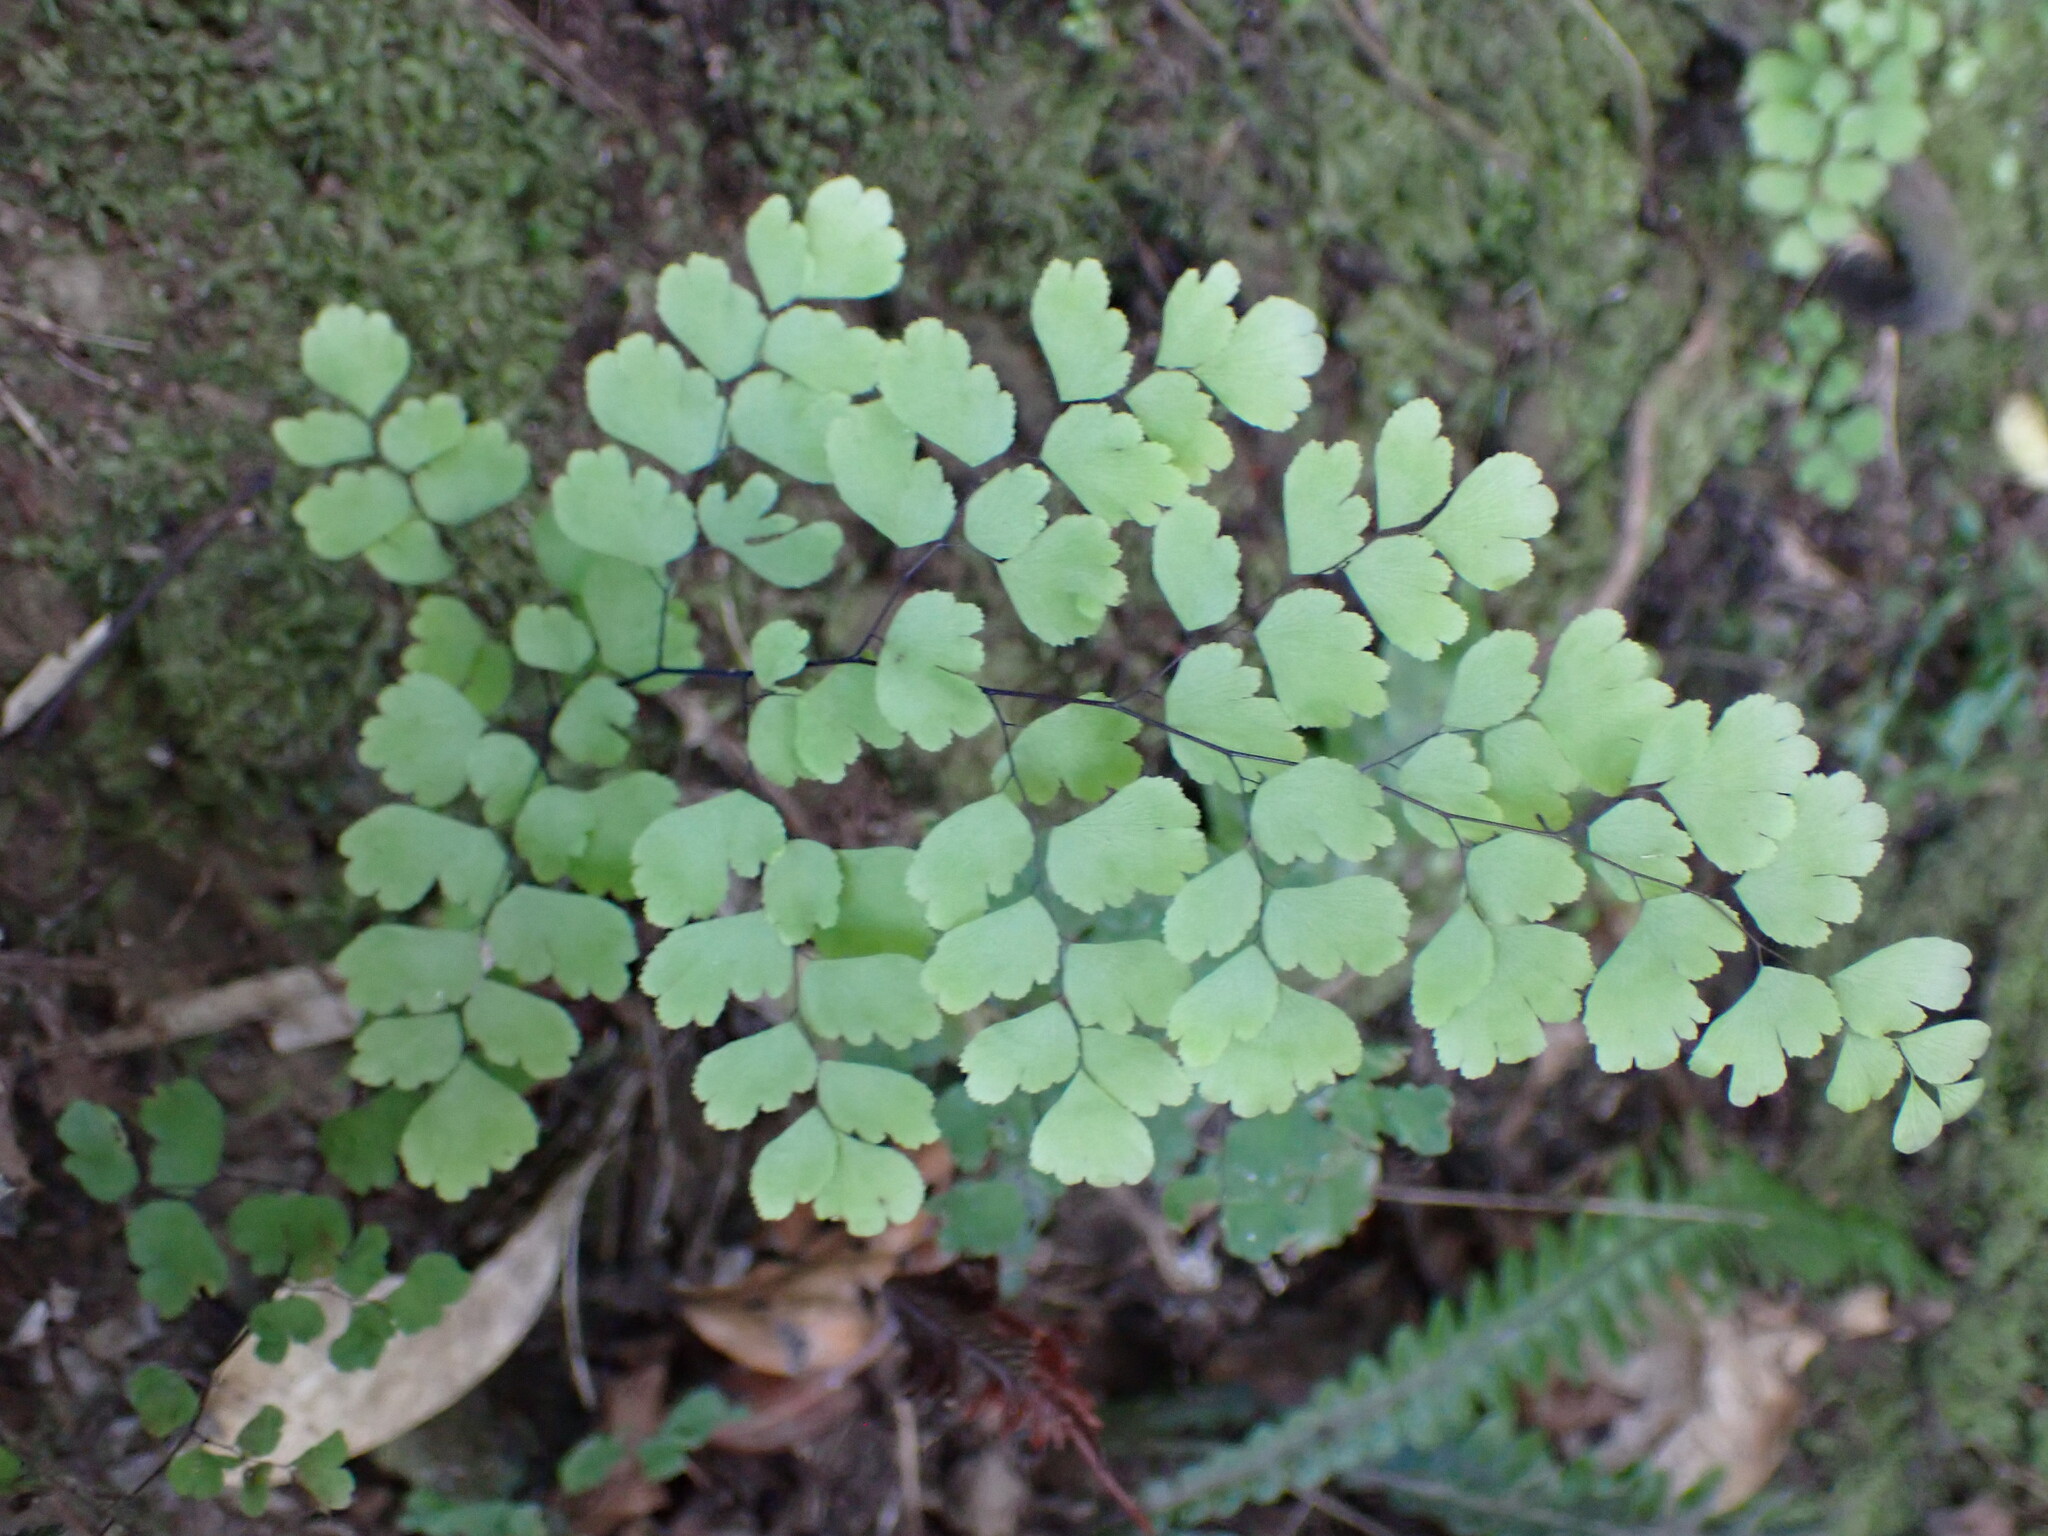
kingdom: Plantae
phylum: Tracheophyta
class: Polypodiopsida
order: Polypodiales
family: Pteridaceae
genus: Adiantum
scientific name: Adiantum raddianum
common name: Delta maidenhair fern
